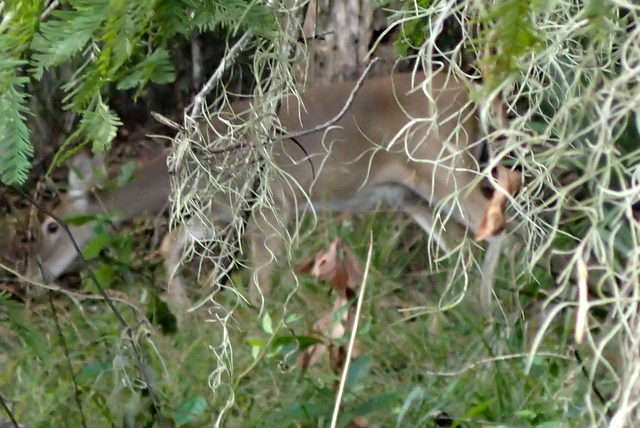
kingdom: Animalia
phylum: Chordata
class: Mammalia
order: Artiodactyla
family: Cervidae
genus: Odocoileus
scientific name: Odocoileus virginianus
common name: White-tailed deer
